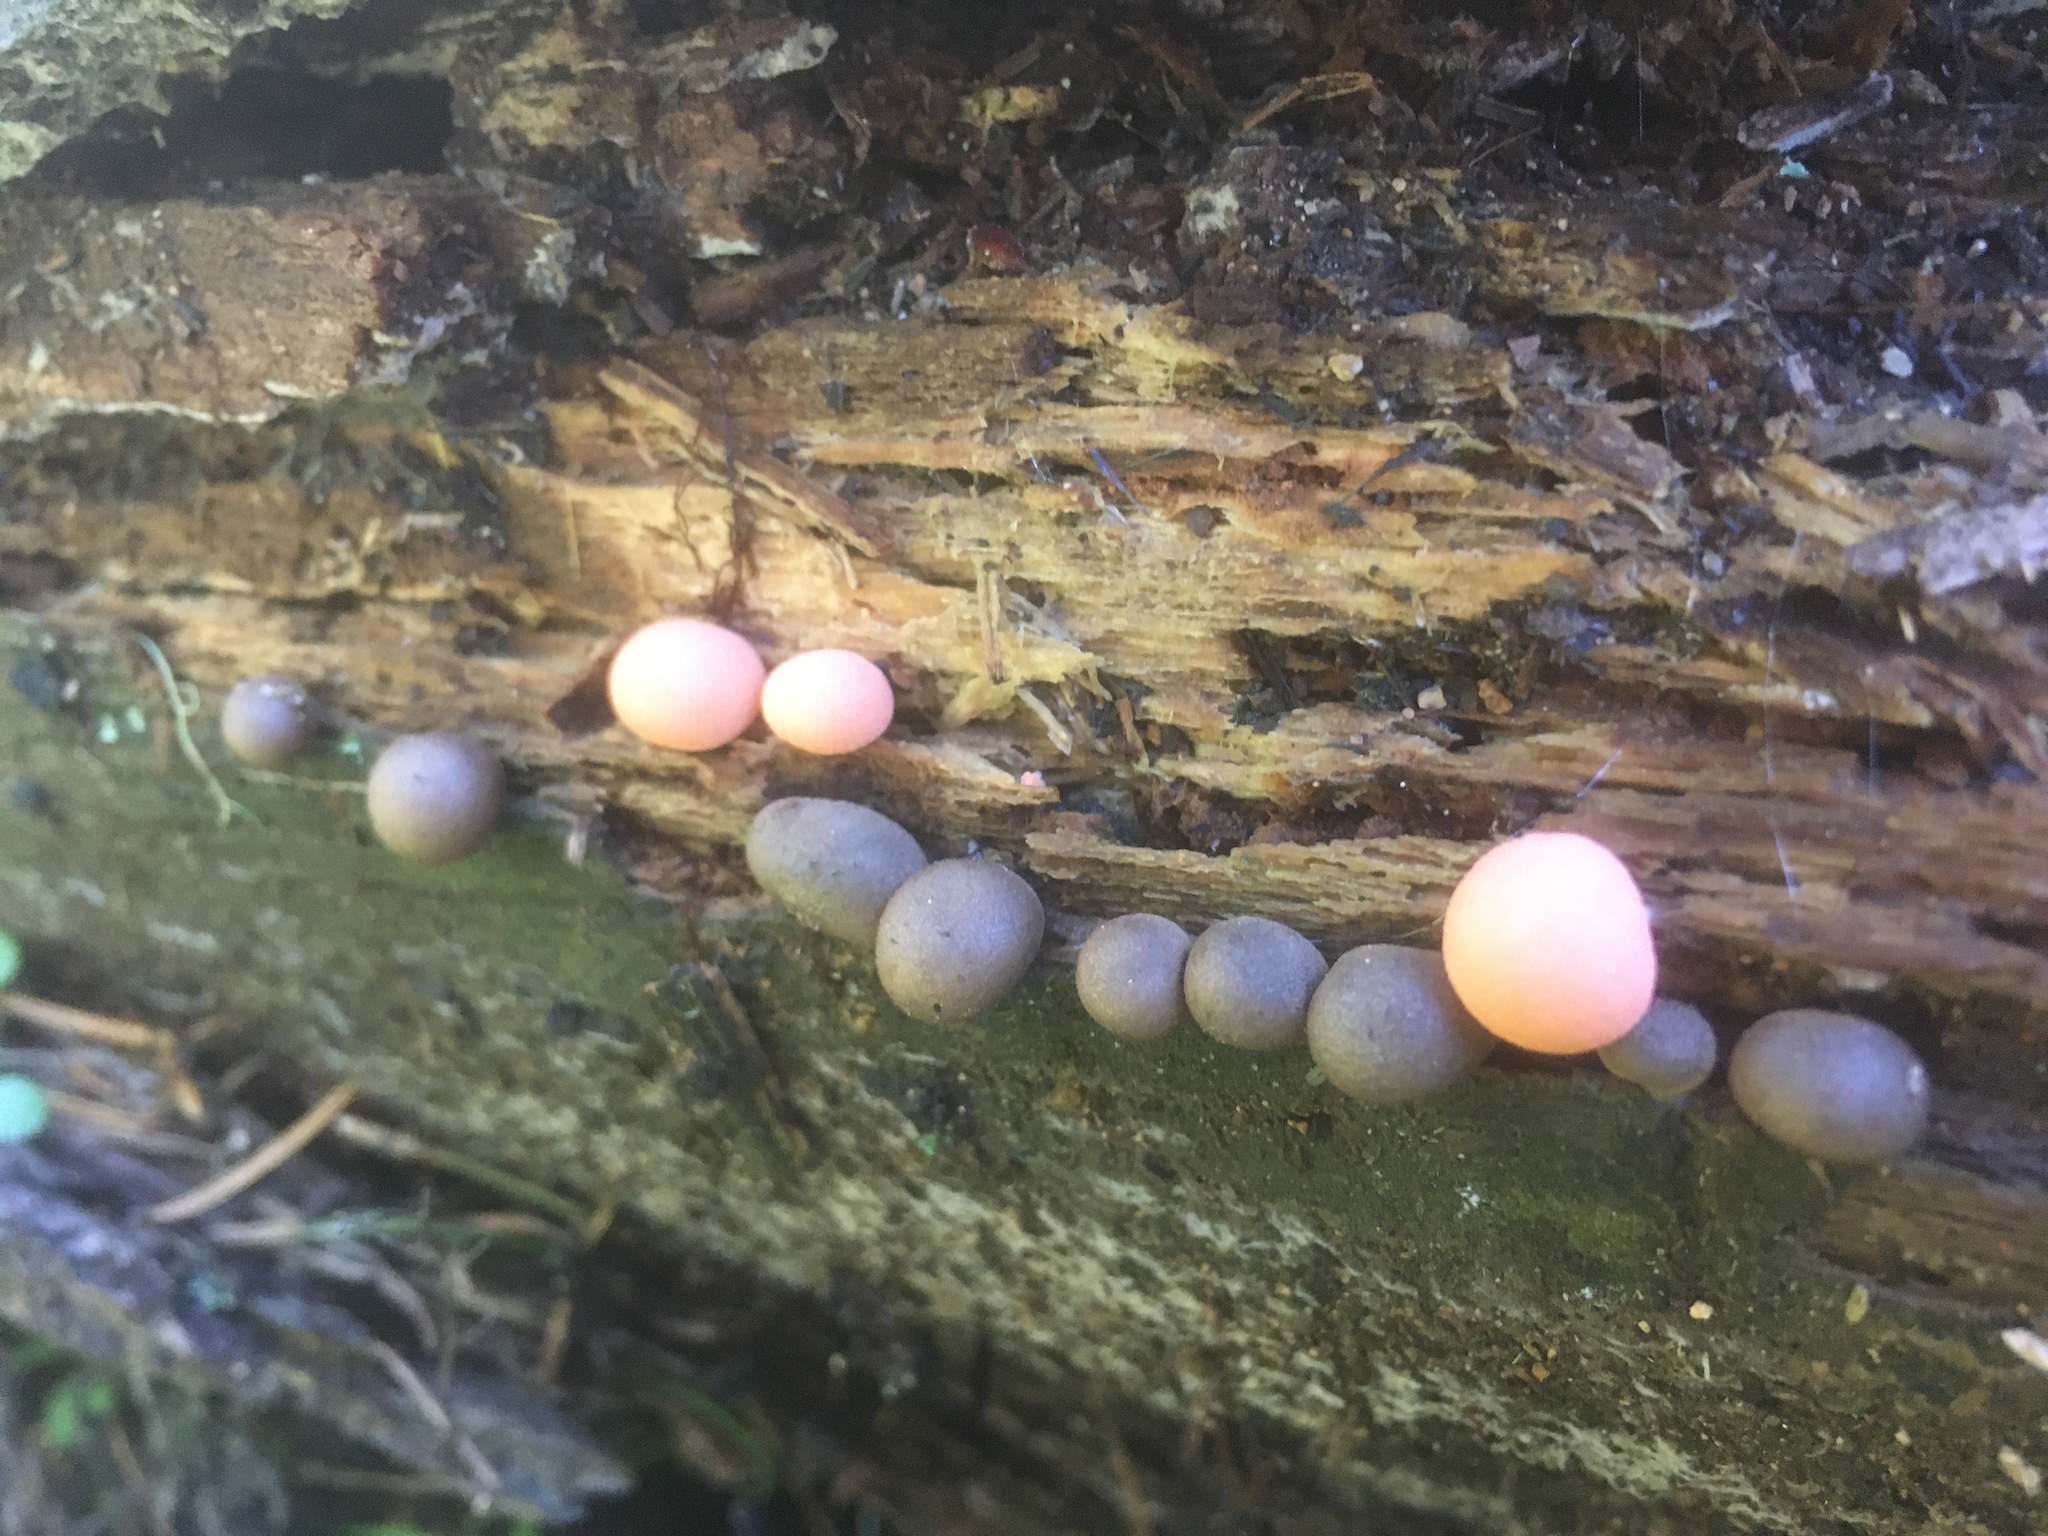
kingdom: Protozoa
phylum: Mycetozoa
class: Myxomycetes
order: Cribrariales
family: Tubiferaceae
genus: Lycogala
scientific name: Lycogala epidendrum
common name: Wolf's milk
